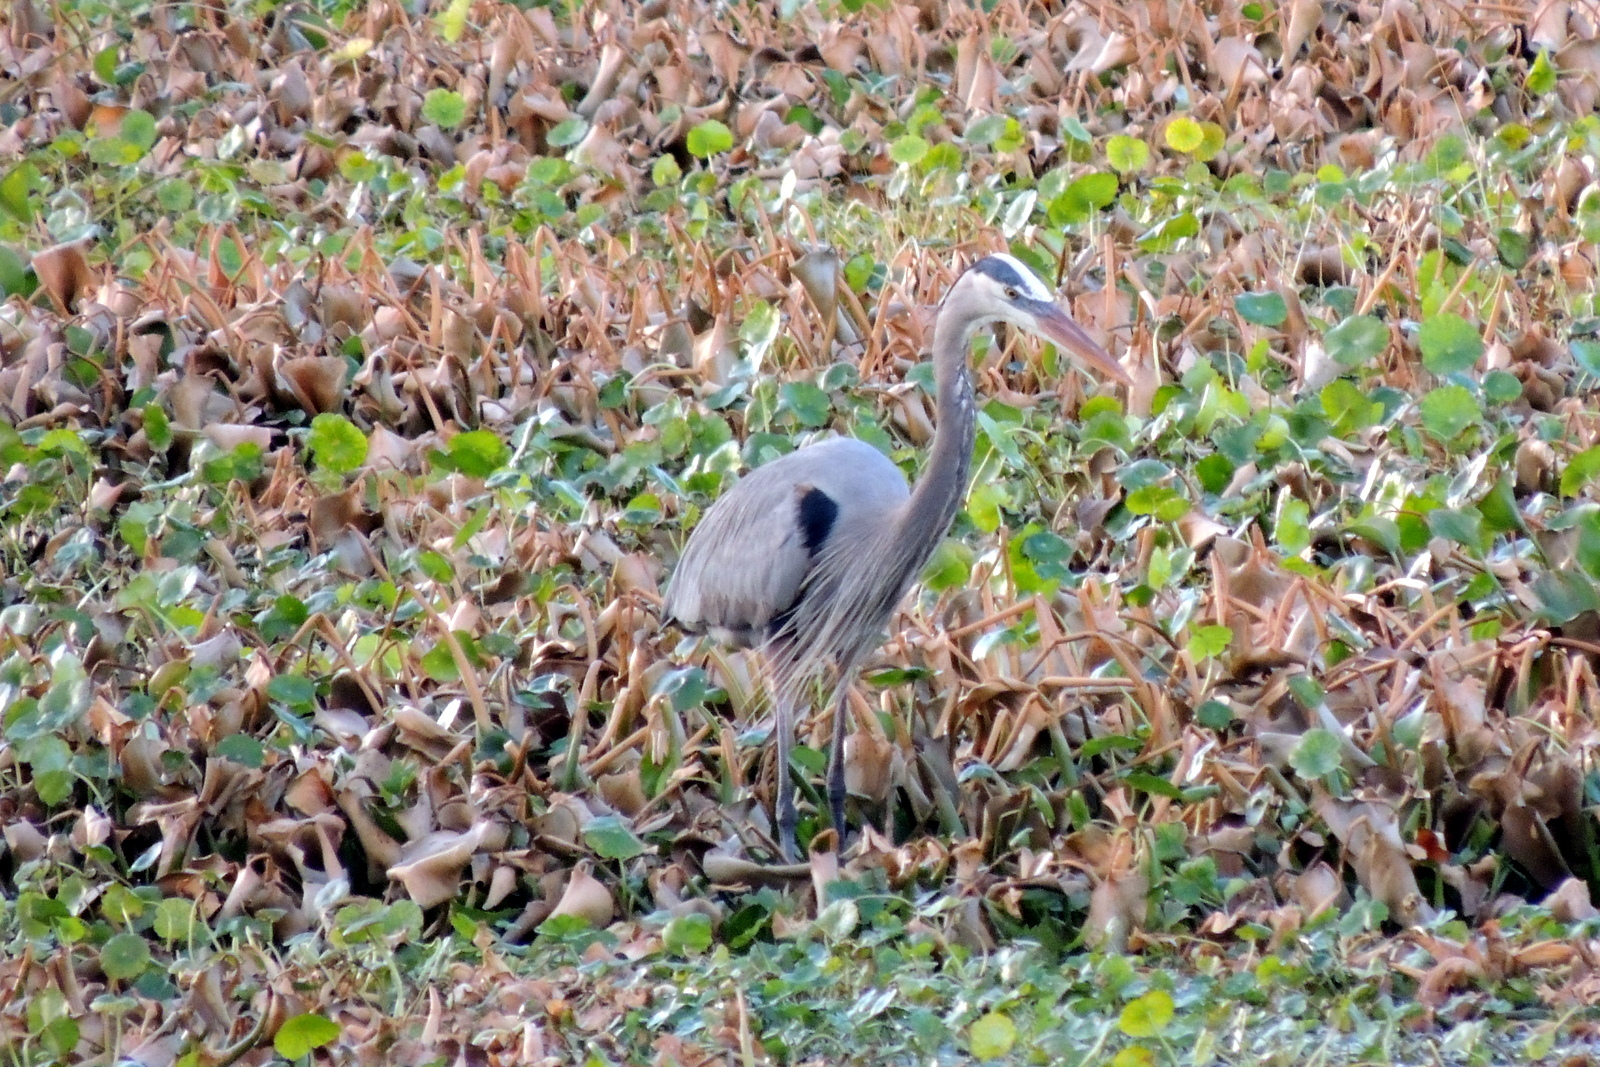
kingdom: Animalia
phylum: Chordata
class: Aves
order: Pelecaniformes
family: Ardeidae
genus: Ardea
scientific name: Ardea herodias
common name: Great blue heron
